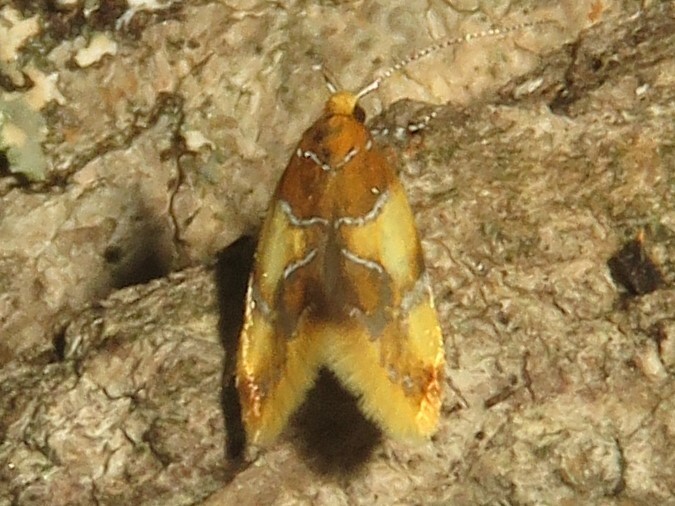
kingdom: Animalia
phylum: Arthropoda
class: Insecta
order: Lepidoptera
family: Oecophoridae
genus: Callima
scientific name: Callima argenticinctella
